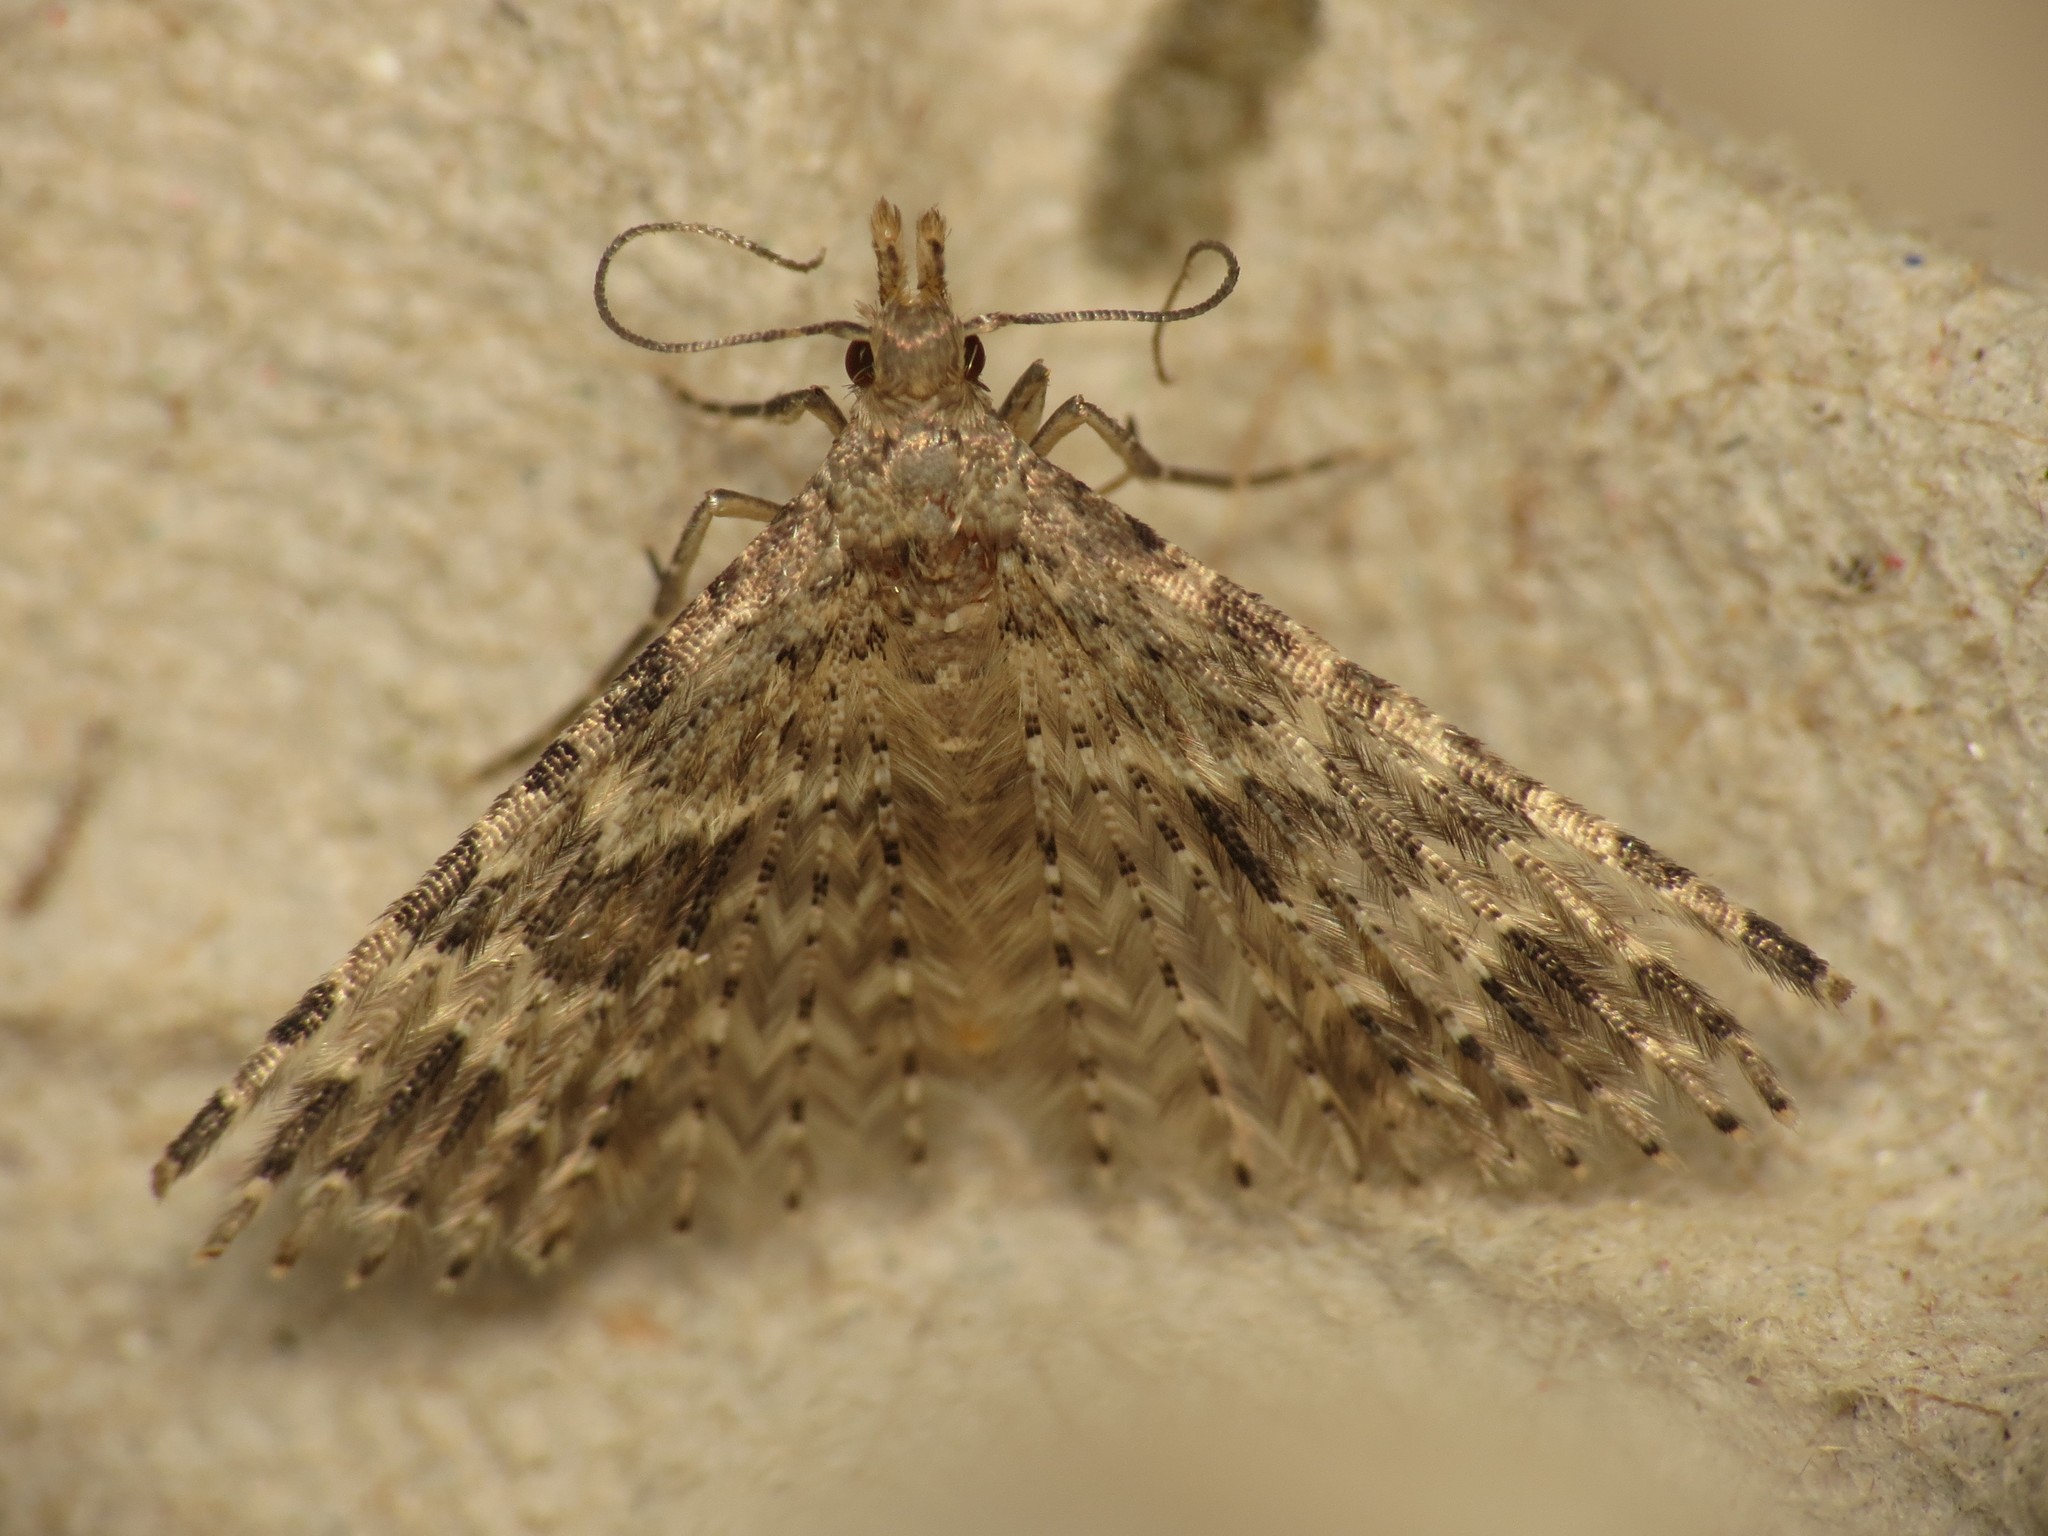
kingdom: Animalia
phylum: Arthropoda
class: Insecta
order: Lepidoptera
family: Alucitidae
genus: Alucita
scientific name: Alucita hexadactyla
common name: Twenty-plume moth
